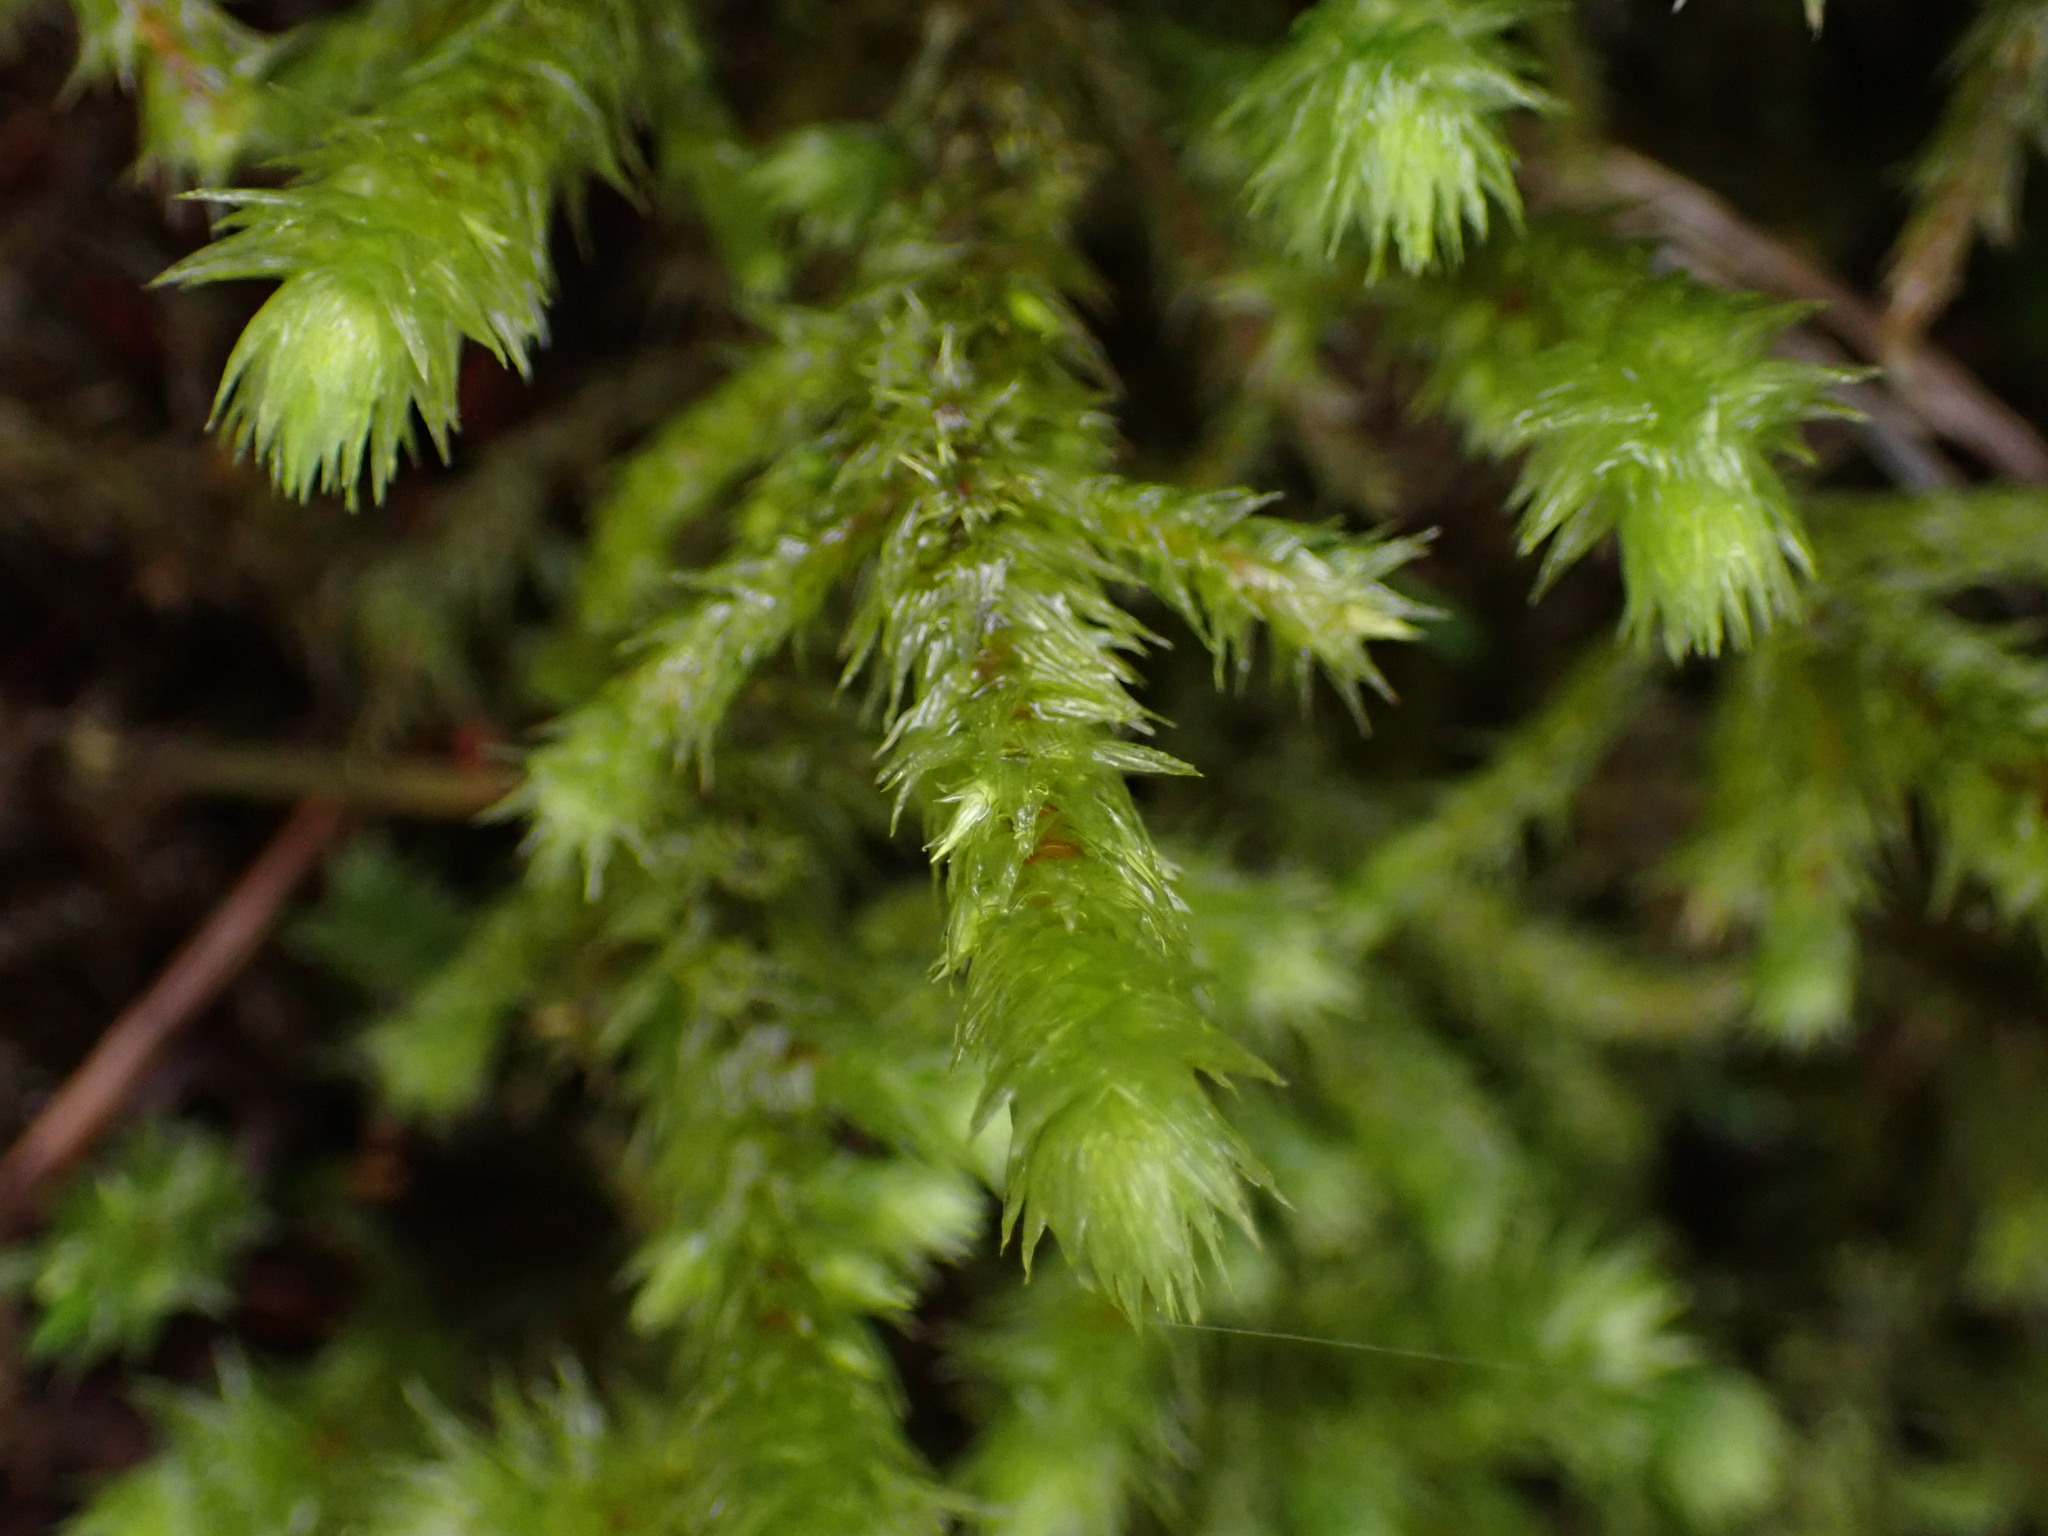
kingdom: Plantae
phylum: Bryophyta
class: Bryopsida
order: Hypnales
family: Hylocomiaceae
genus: Hylocomiadelphus
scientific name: Hylocomiadelphus triquetrus
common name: Rough goose neck moss
